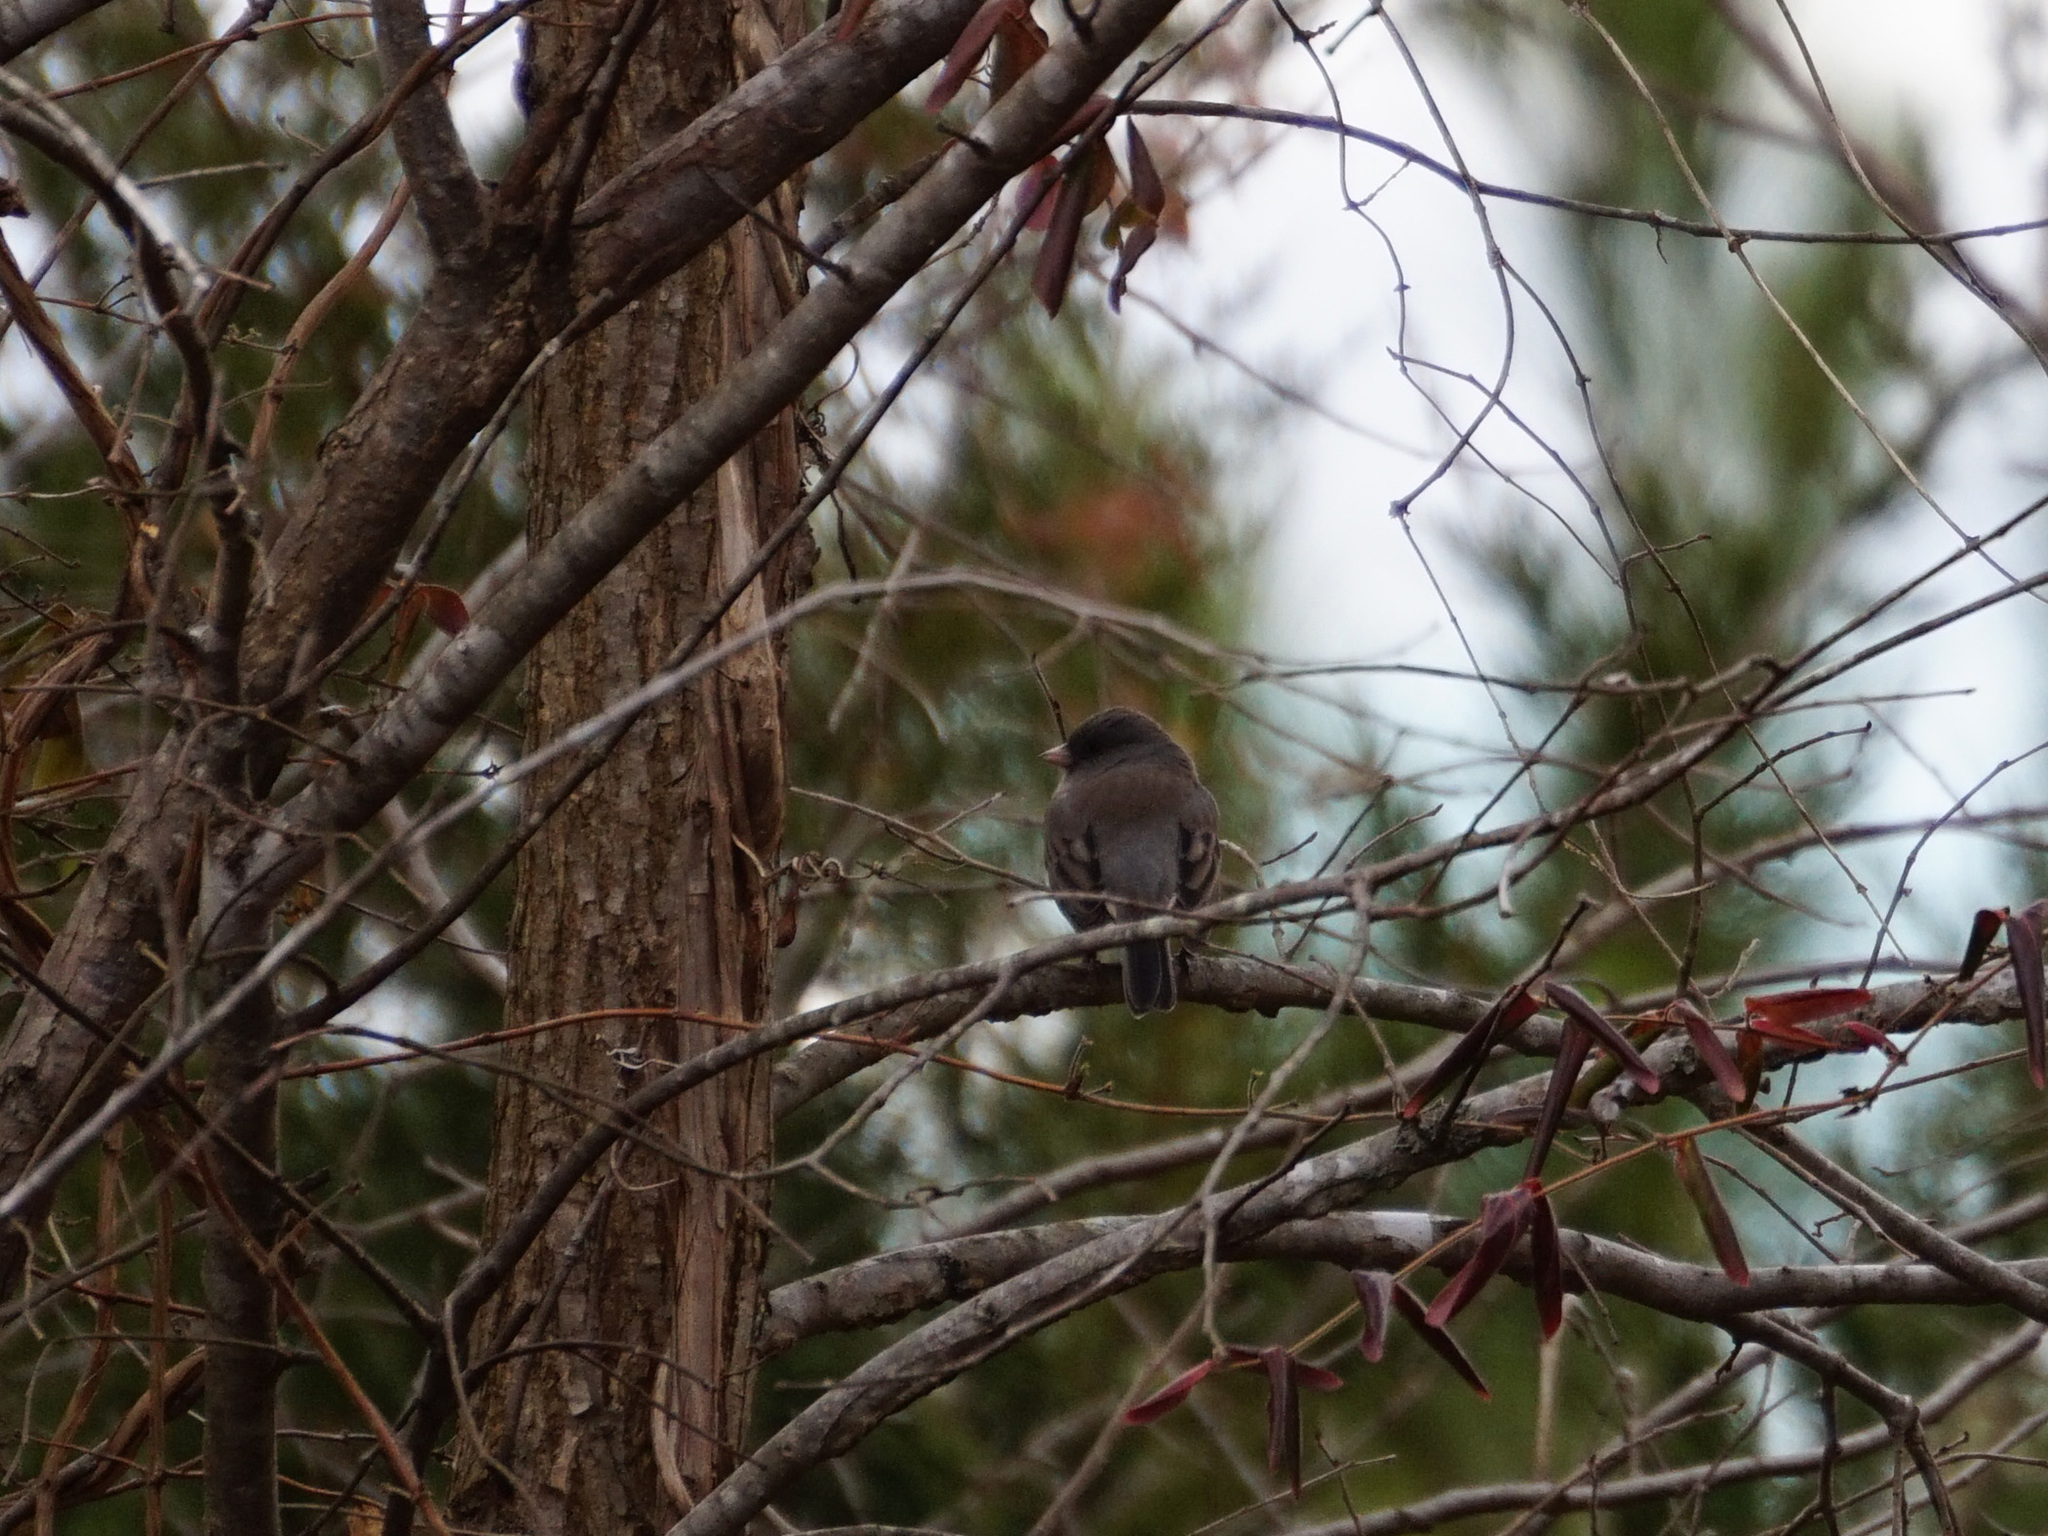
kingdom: Animalia
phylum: Chordata
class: Aves
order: Passeriformes
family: Passerellidae
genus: Junco
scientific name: Junco hyemalis
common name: Dark-eyed junco
